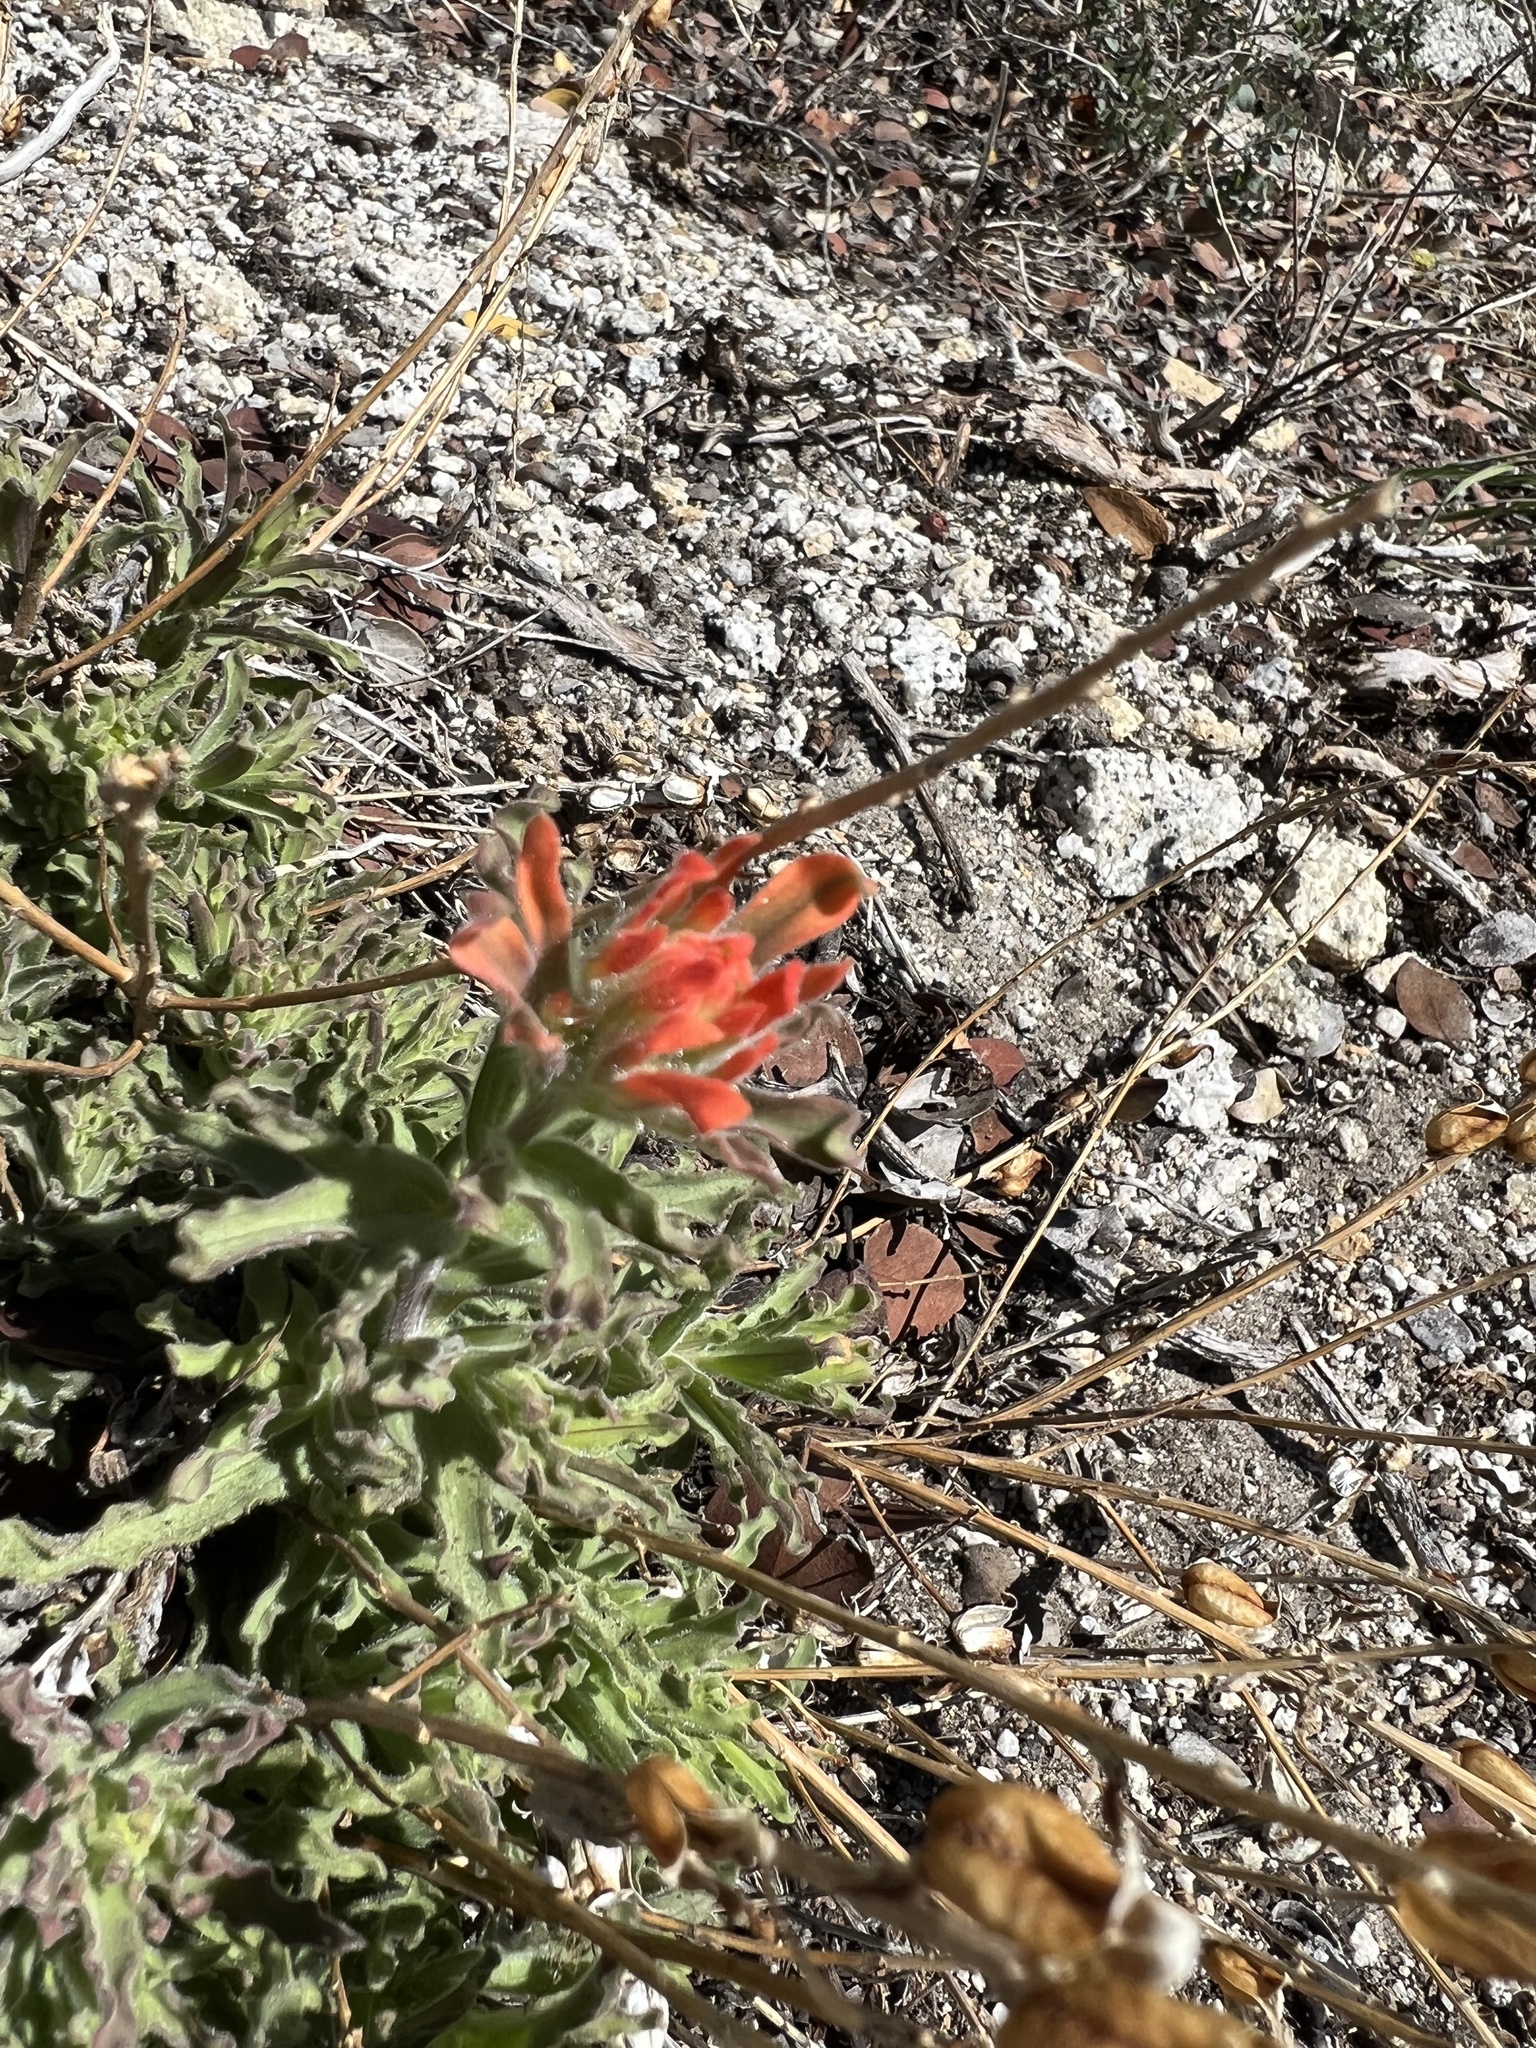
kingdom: Plantae
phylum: Tracheophyta
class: Magnoliopsida
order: Lamiales
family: Orobanchaceae
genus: Castilleja
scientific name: Castilleja applegatei
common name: Wavy-leaf paintbrush
